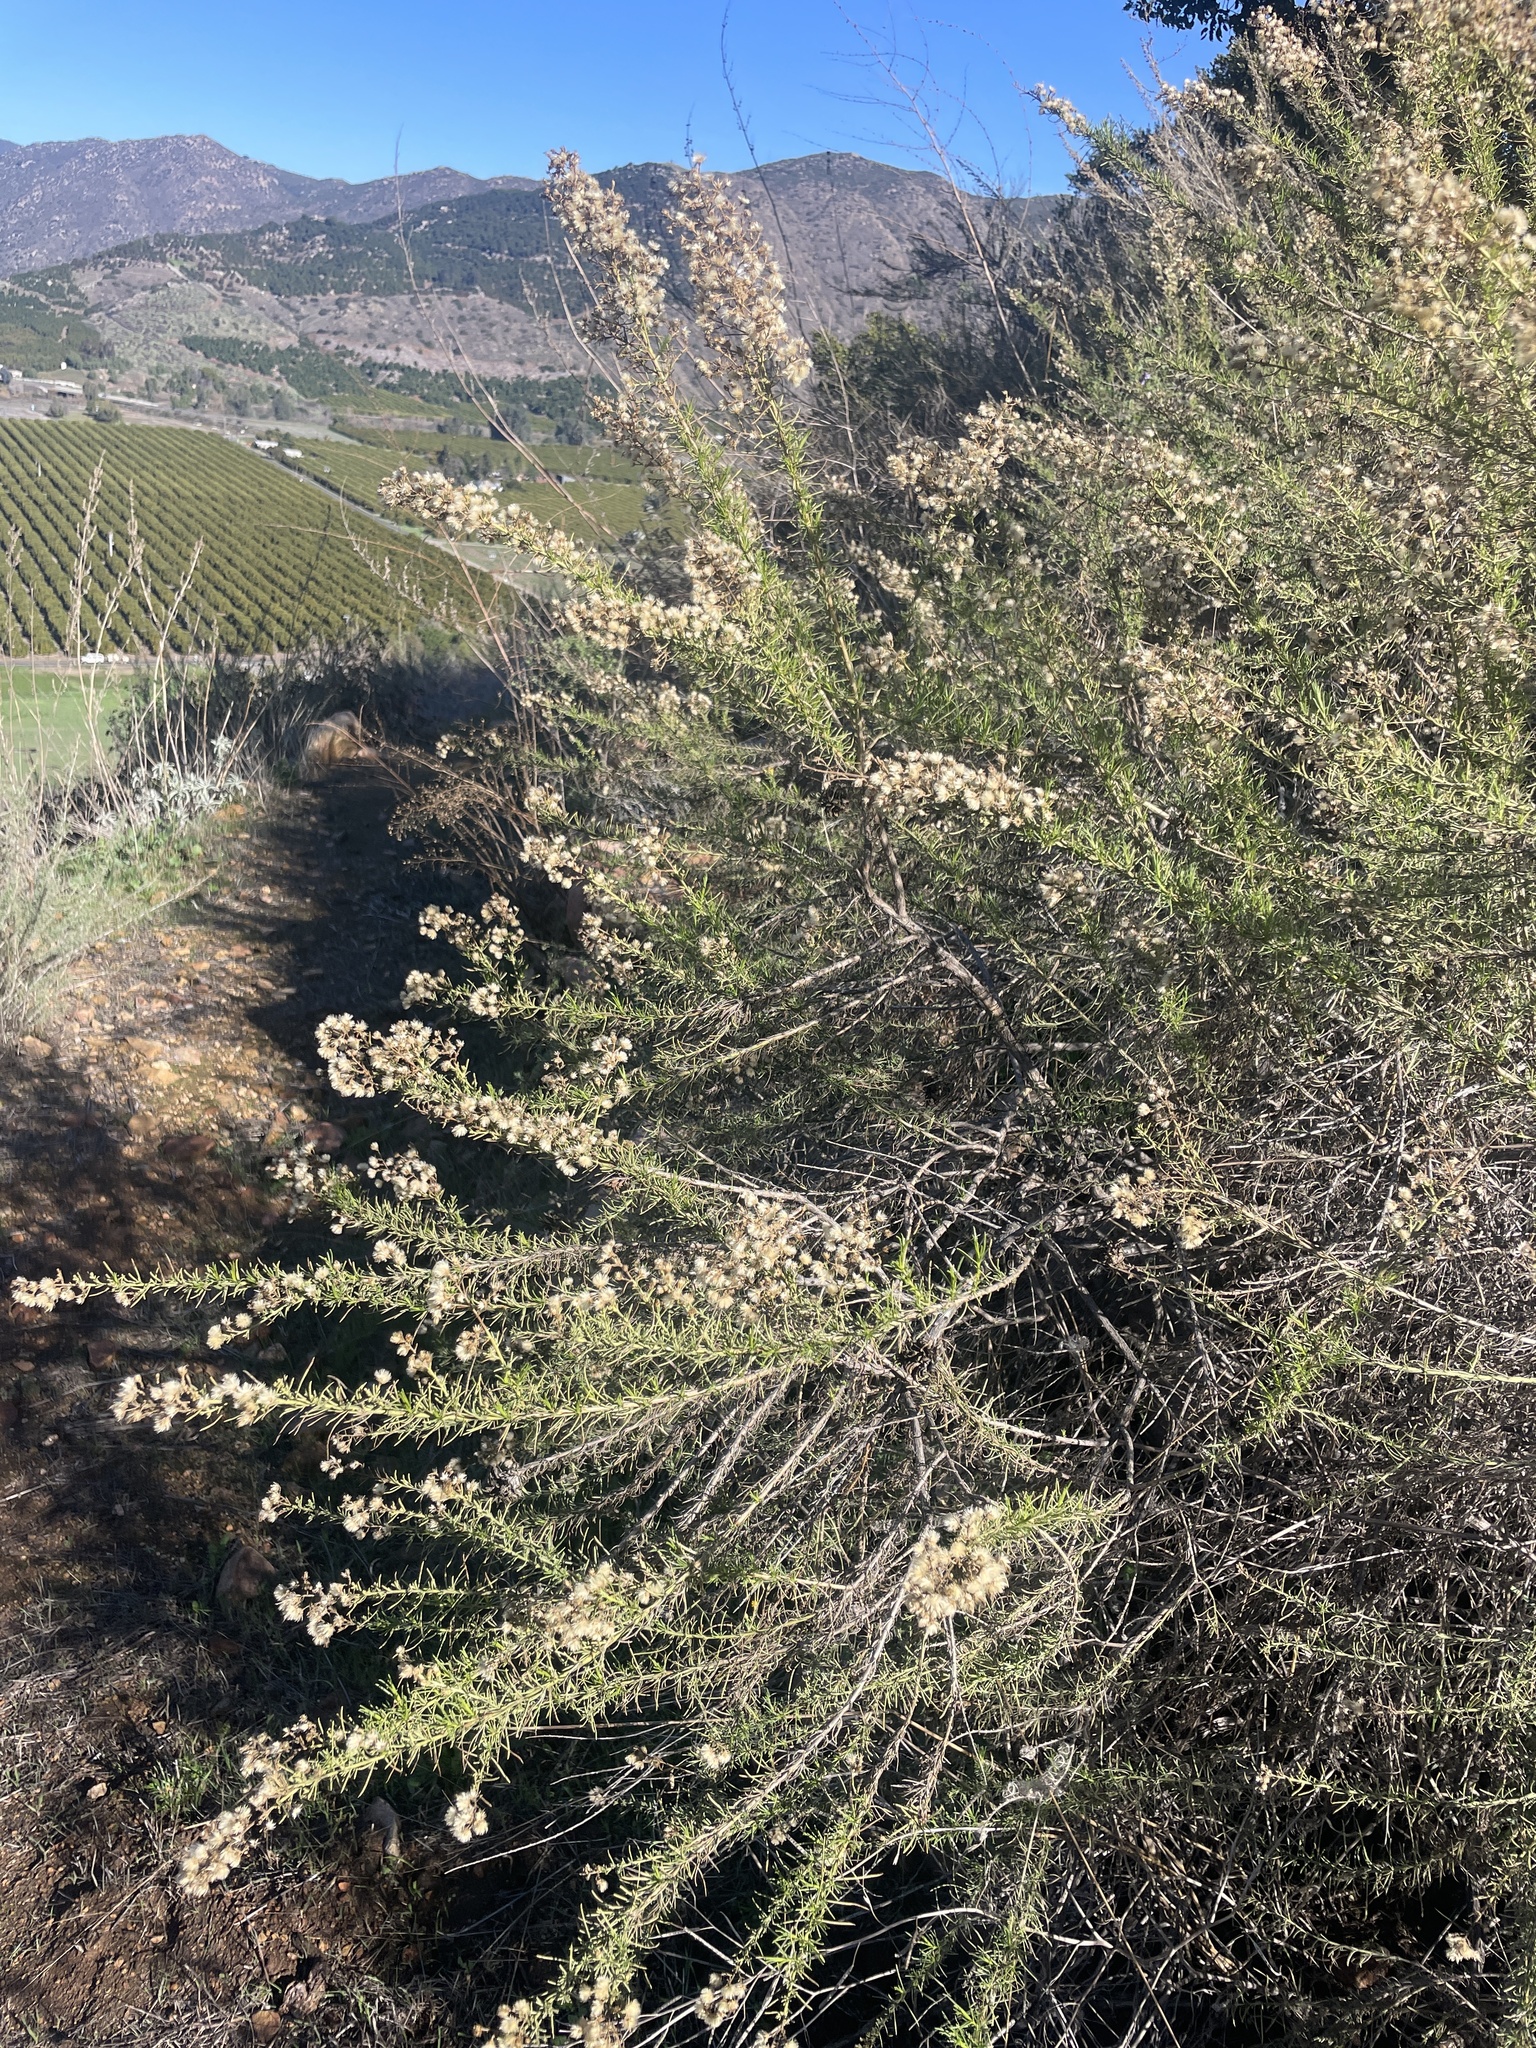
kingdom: Plantae
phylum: Tracheophyta
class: Magnoliopsida
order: Asterales
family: Asteraceae
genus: Ericameria
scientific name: Ericameria palmeri
